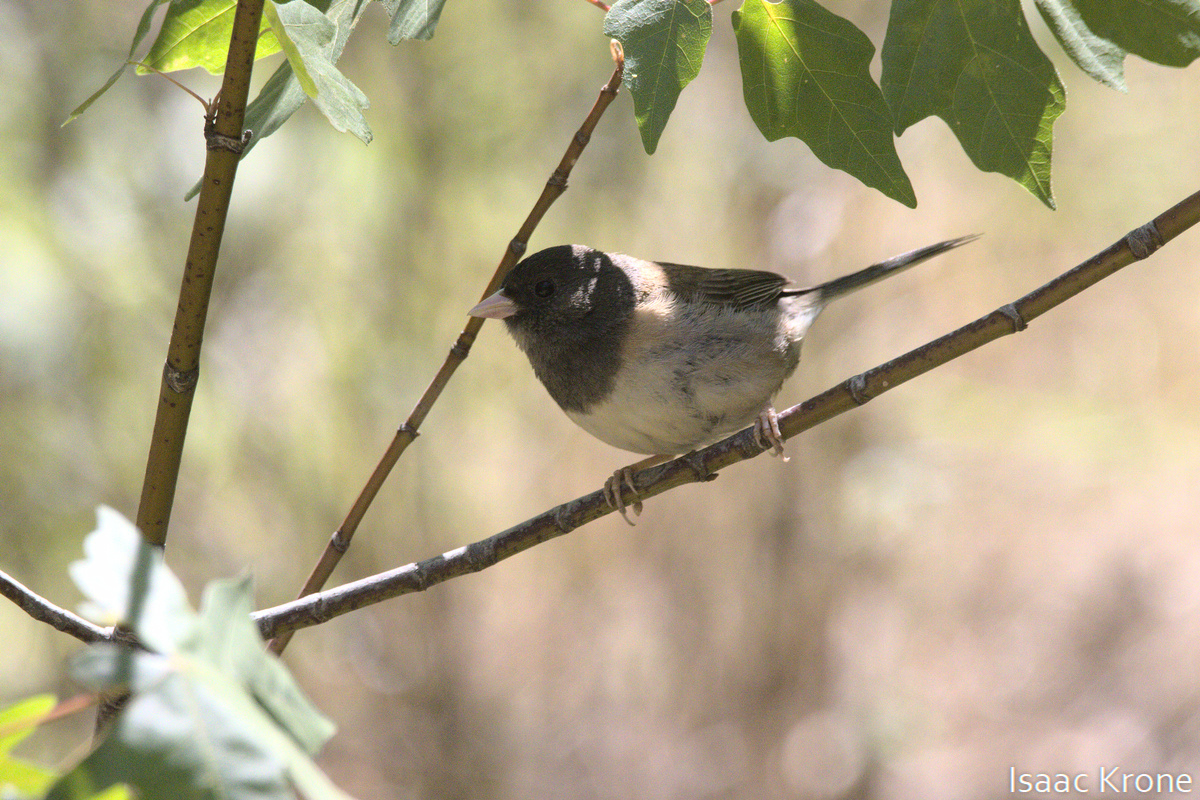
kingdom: Animalia
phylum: Chordata
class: Aves
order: Passeriformes
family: Passerellidae
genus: Junco
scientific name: Junco hyemalis
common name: Dark-eyed junco
